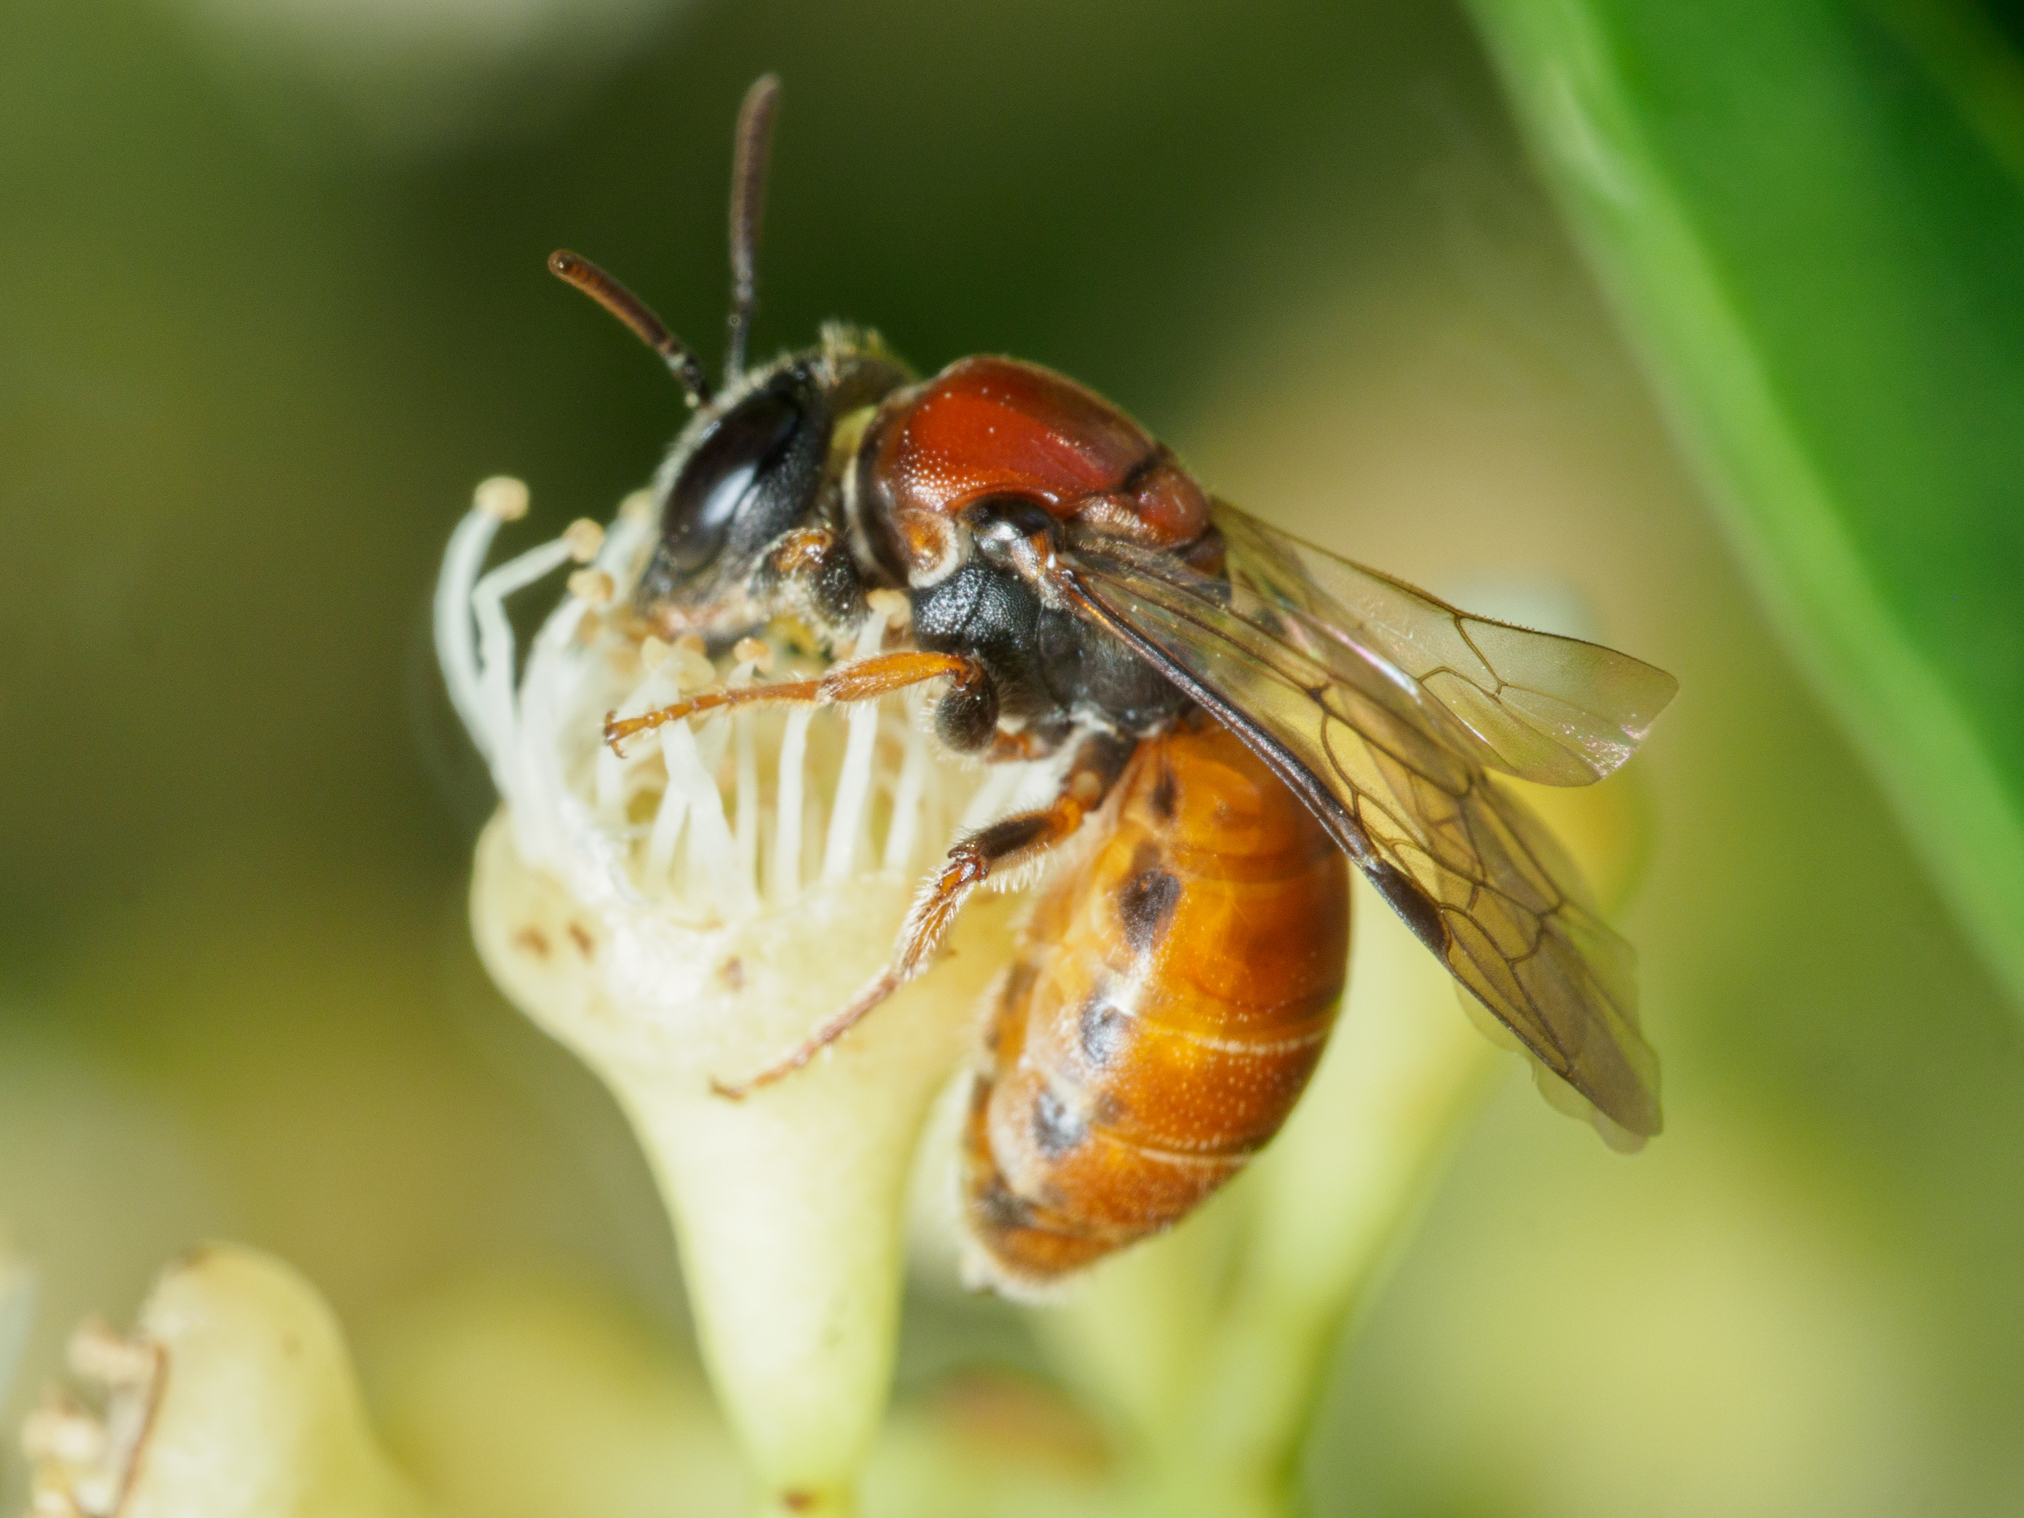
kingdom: Animalia
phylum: Arthropoda
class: Insecta
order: Hymenoptera
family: Colletidae
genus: Euryglossa
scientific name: Euryglossa edwardsii
